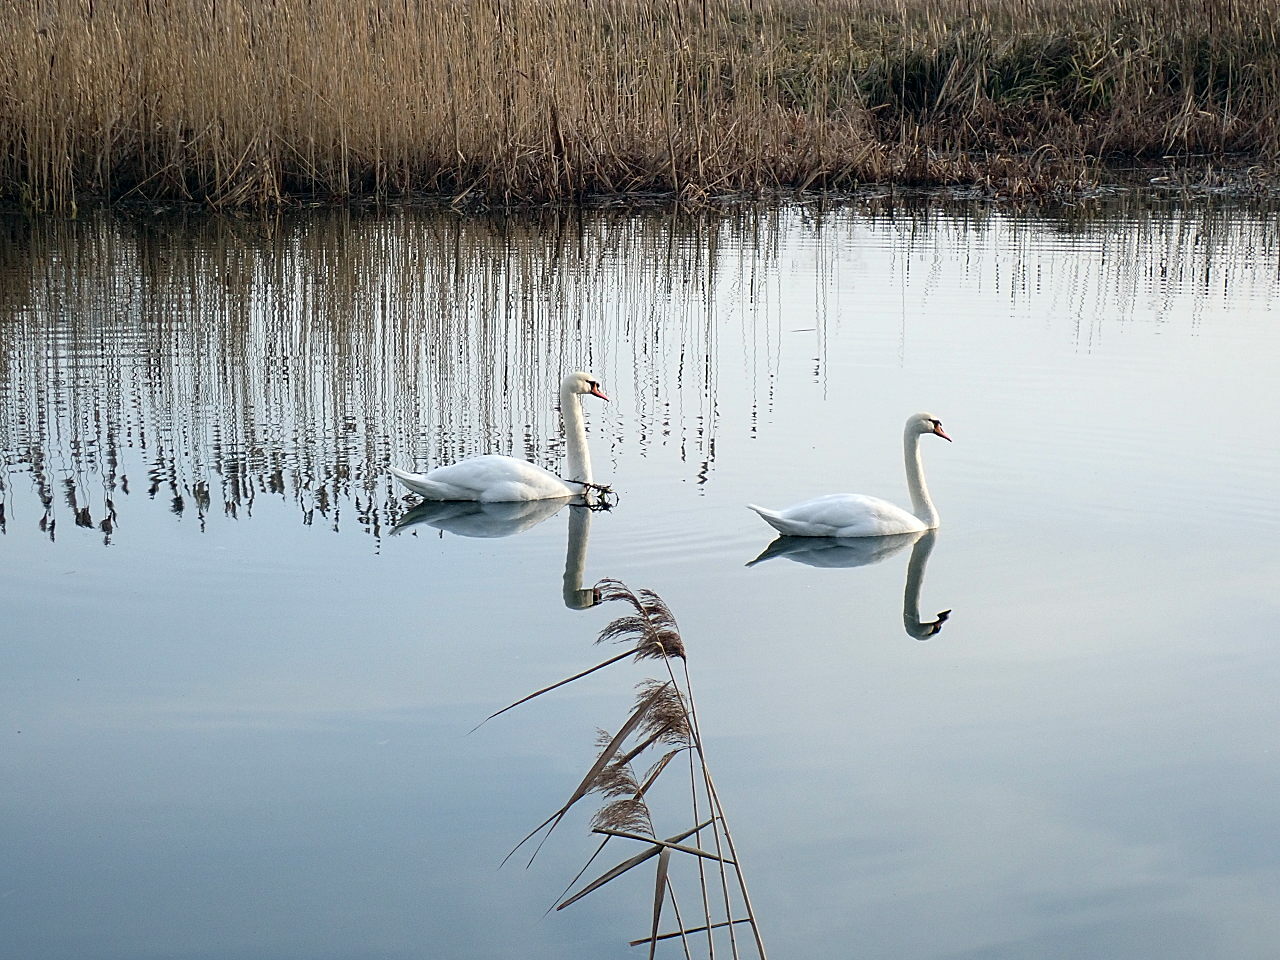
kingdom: Animalia
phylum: Chordata
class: Aves
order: Anseriformes
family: Anatidae
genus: Cygnus
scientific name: Cygnus olor
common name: Mute swan
